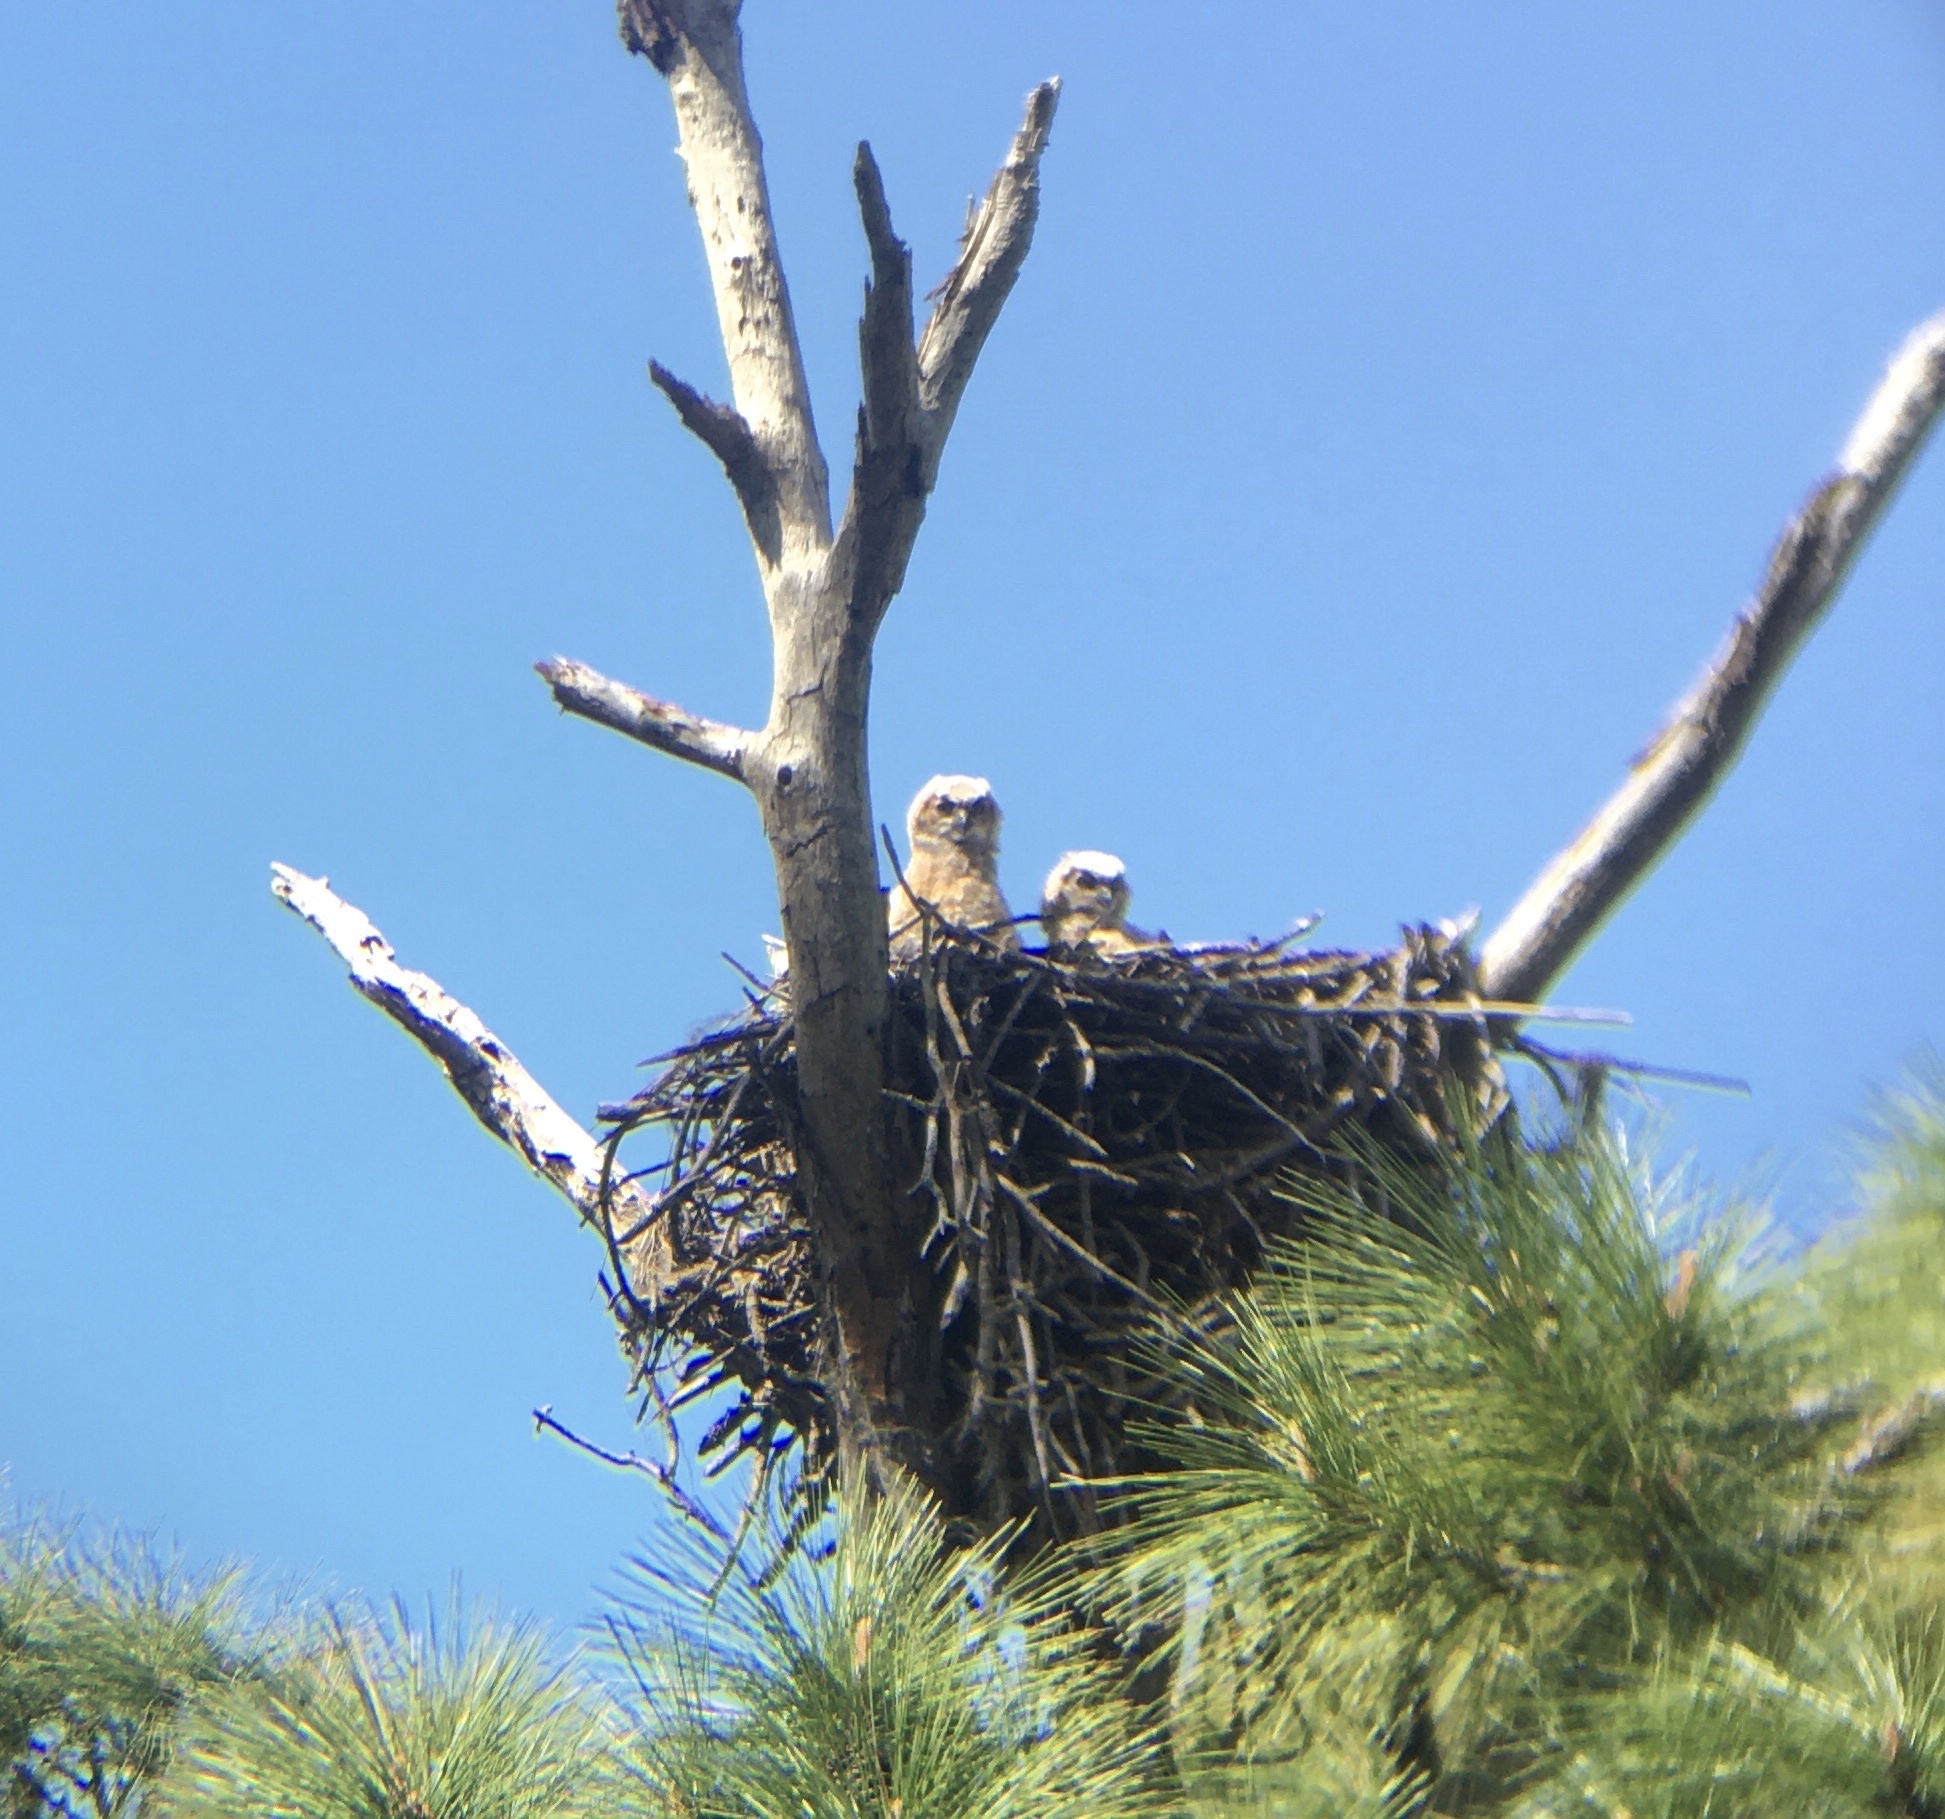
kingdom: Animalia
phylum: Chordata
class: Aves
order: Strigiformes
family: Strigidae
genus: Bubo
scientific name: Bubo virginianus
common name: Great horned owl
